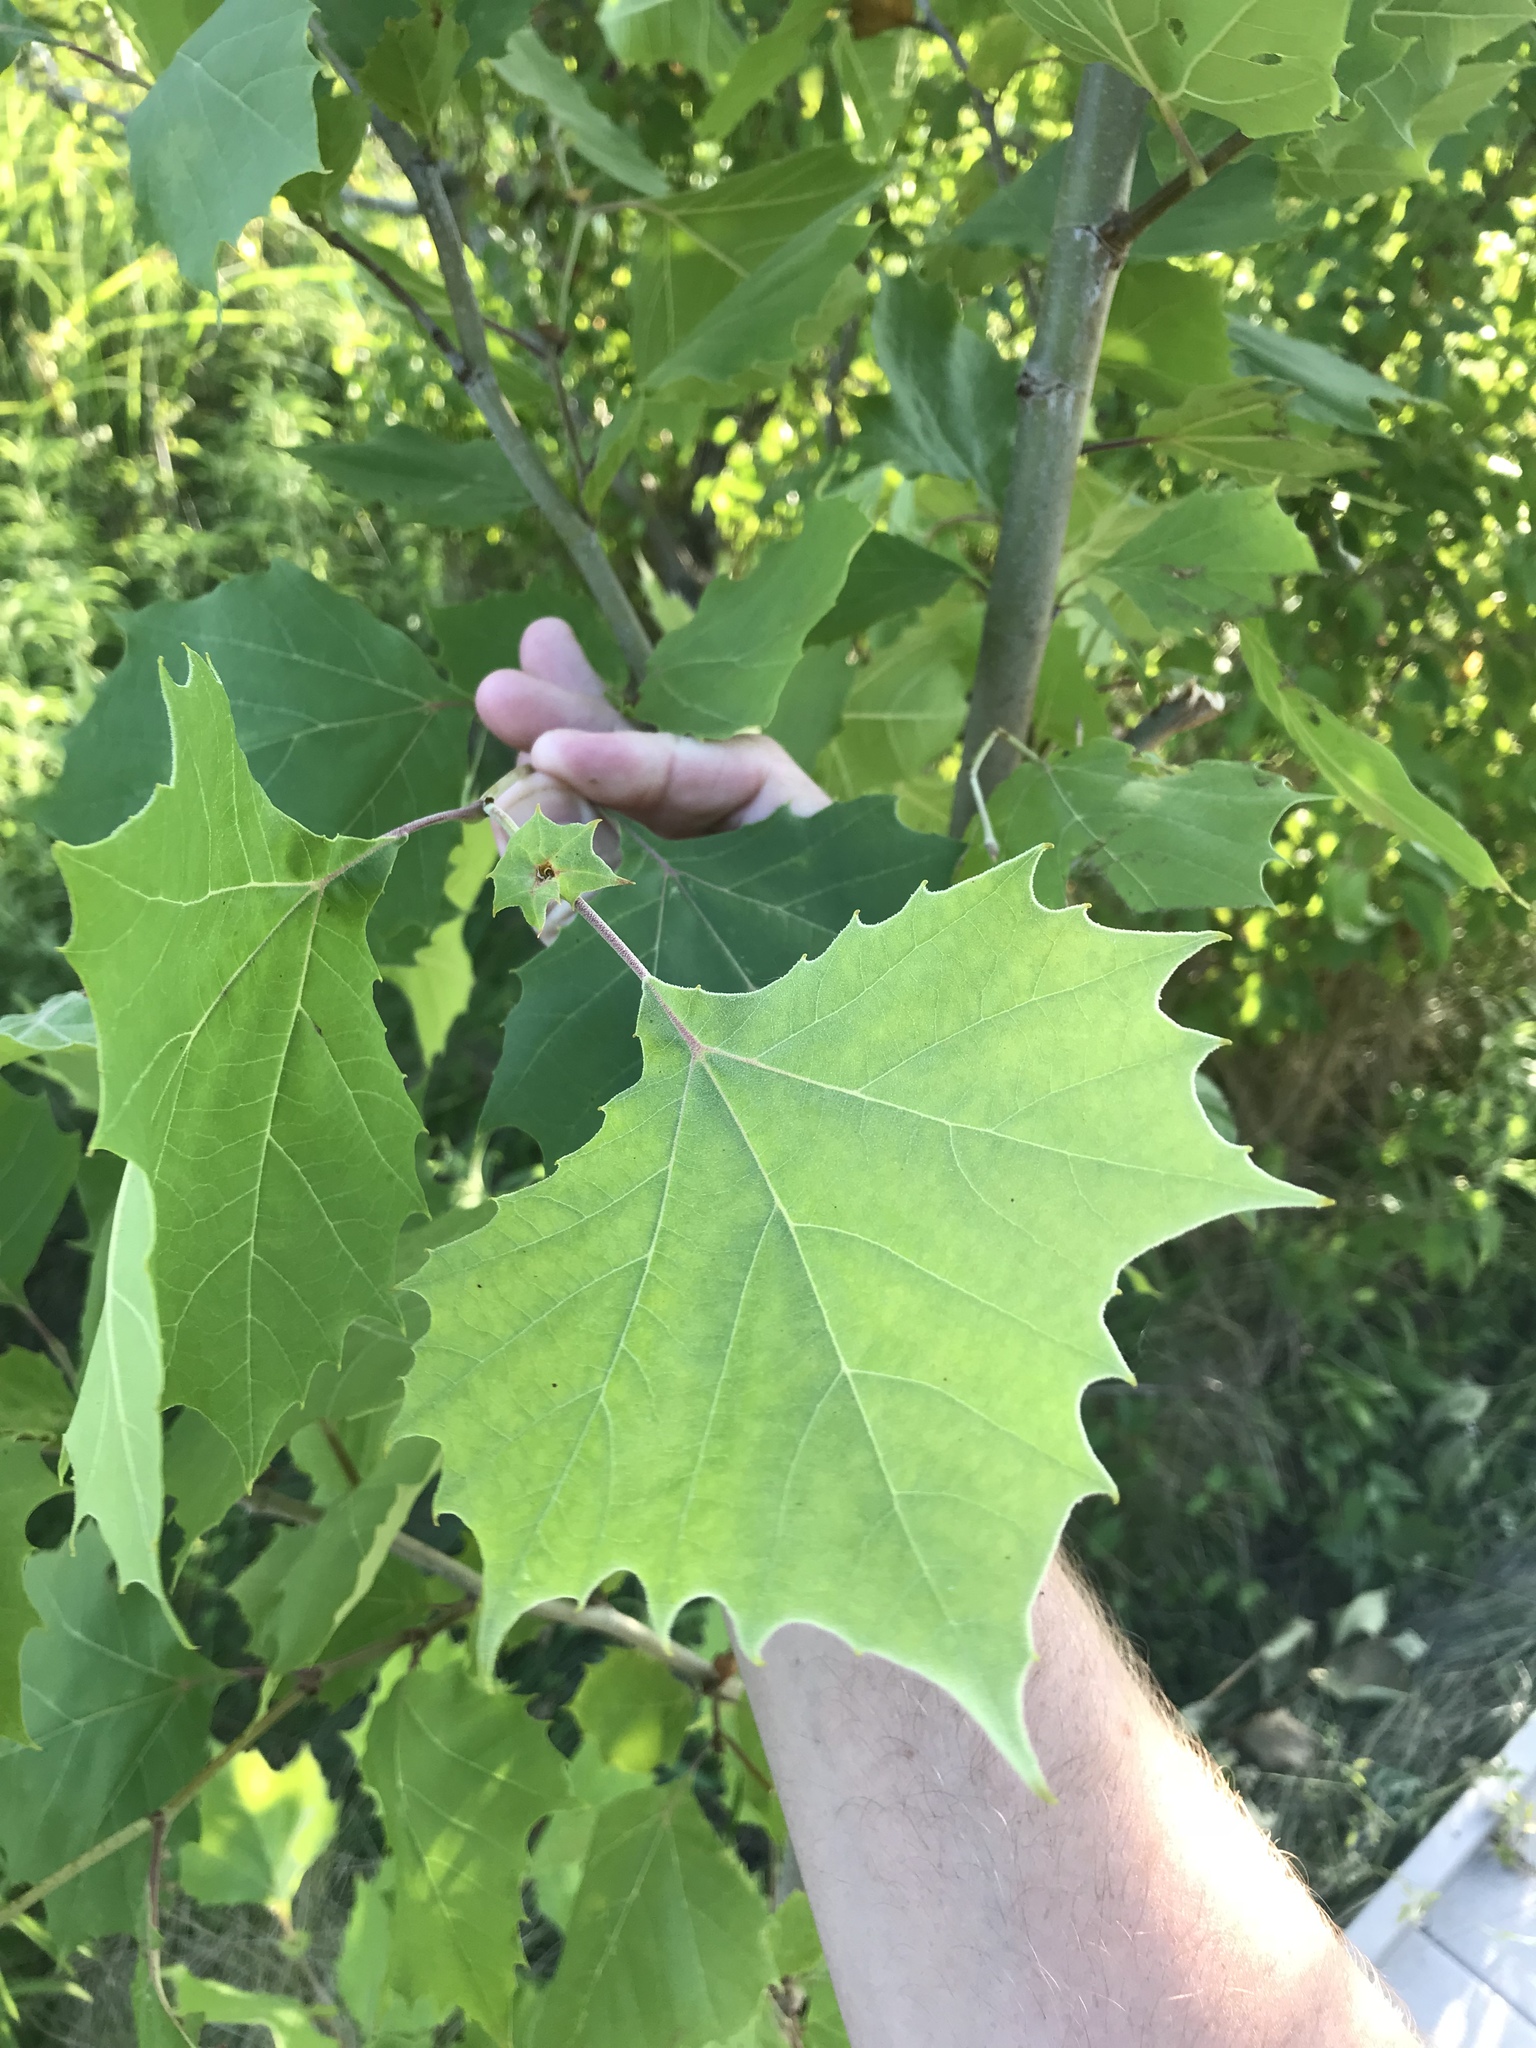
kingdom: Plantae
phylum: Tracheophyta
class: Magnoliopsida
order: Proteales
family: Platanaceae
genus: Platanus
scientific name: Platanus occidentalis
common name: American sycamore
